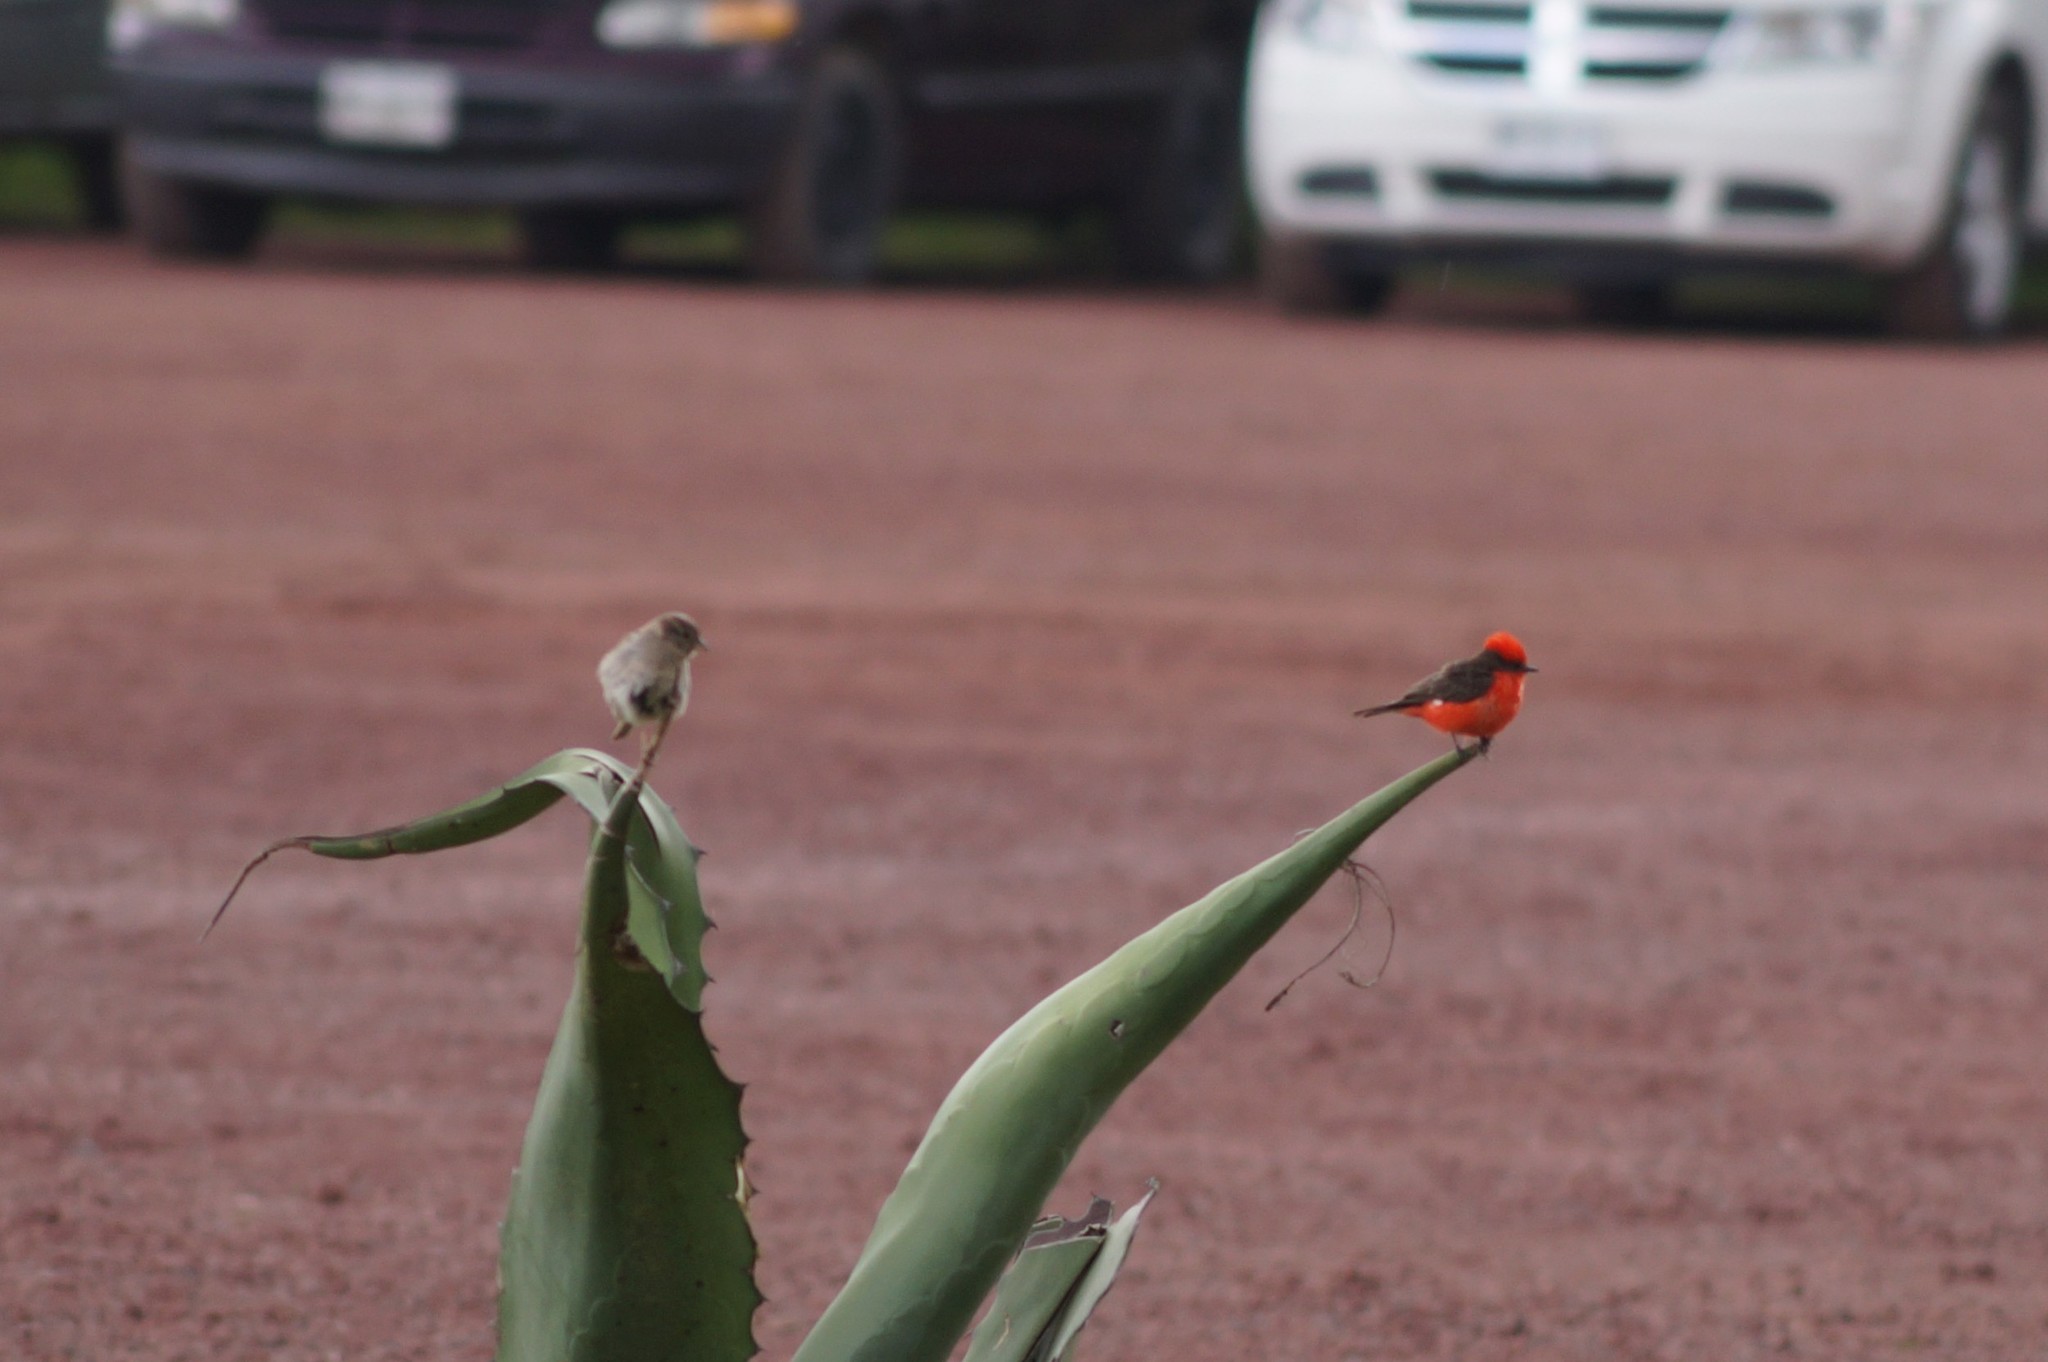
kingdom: Animalia
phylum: Chordata
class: Aves
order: Passeriformes
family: Tyrannidae
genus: Pyrocephalus
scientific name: Pyrocephalus rubinus
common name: Vermilion flycatcher
